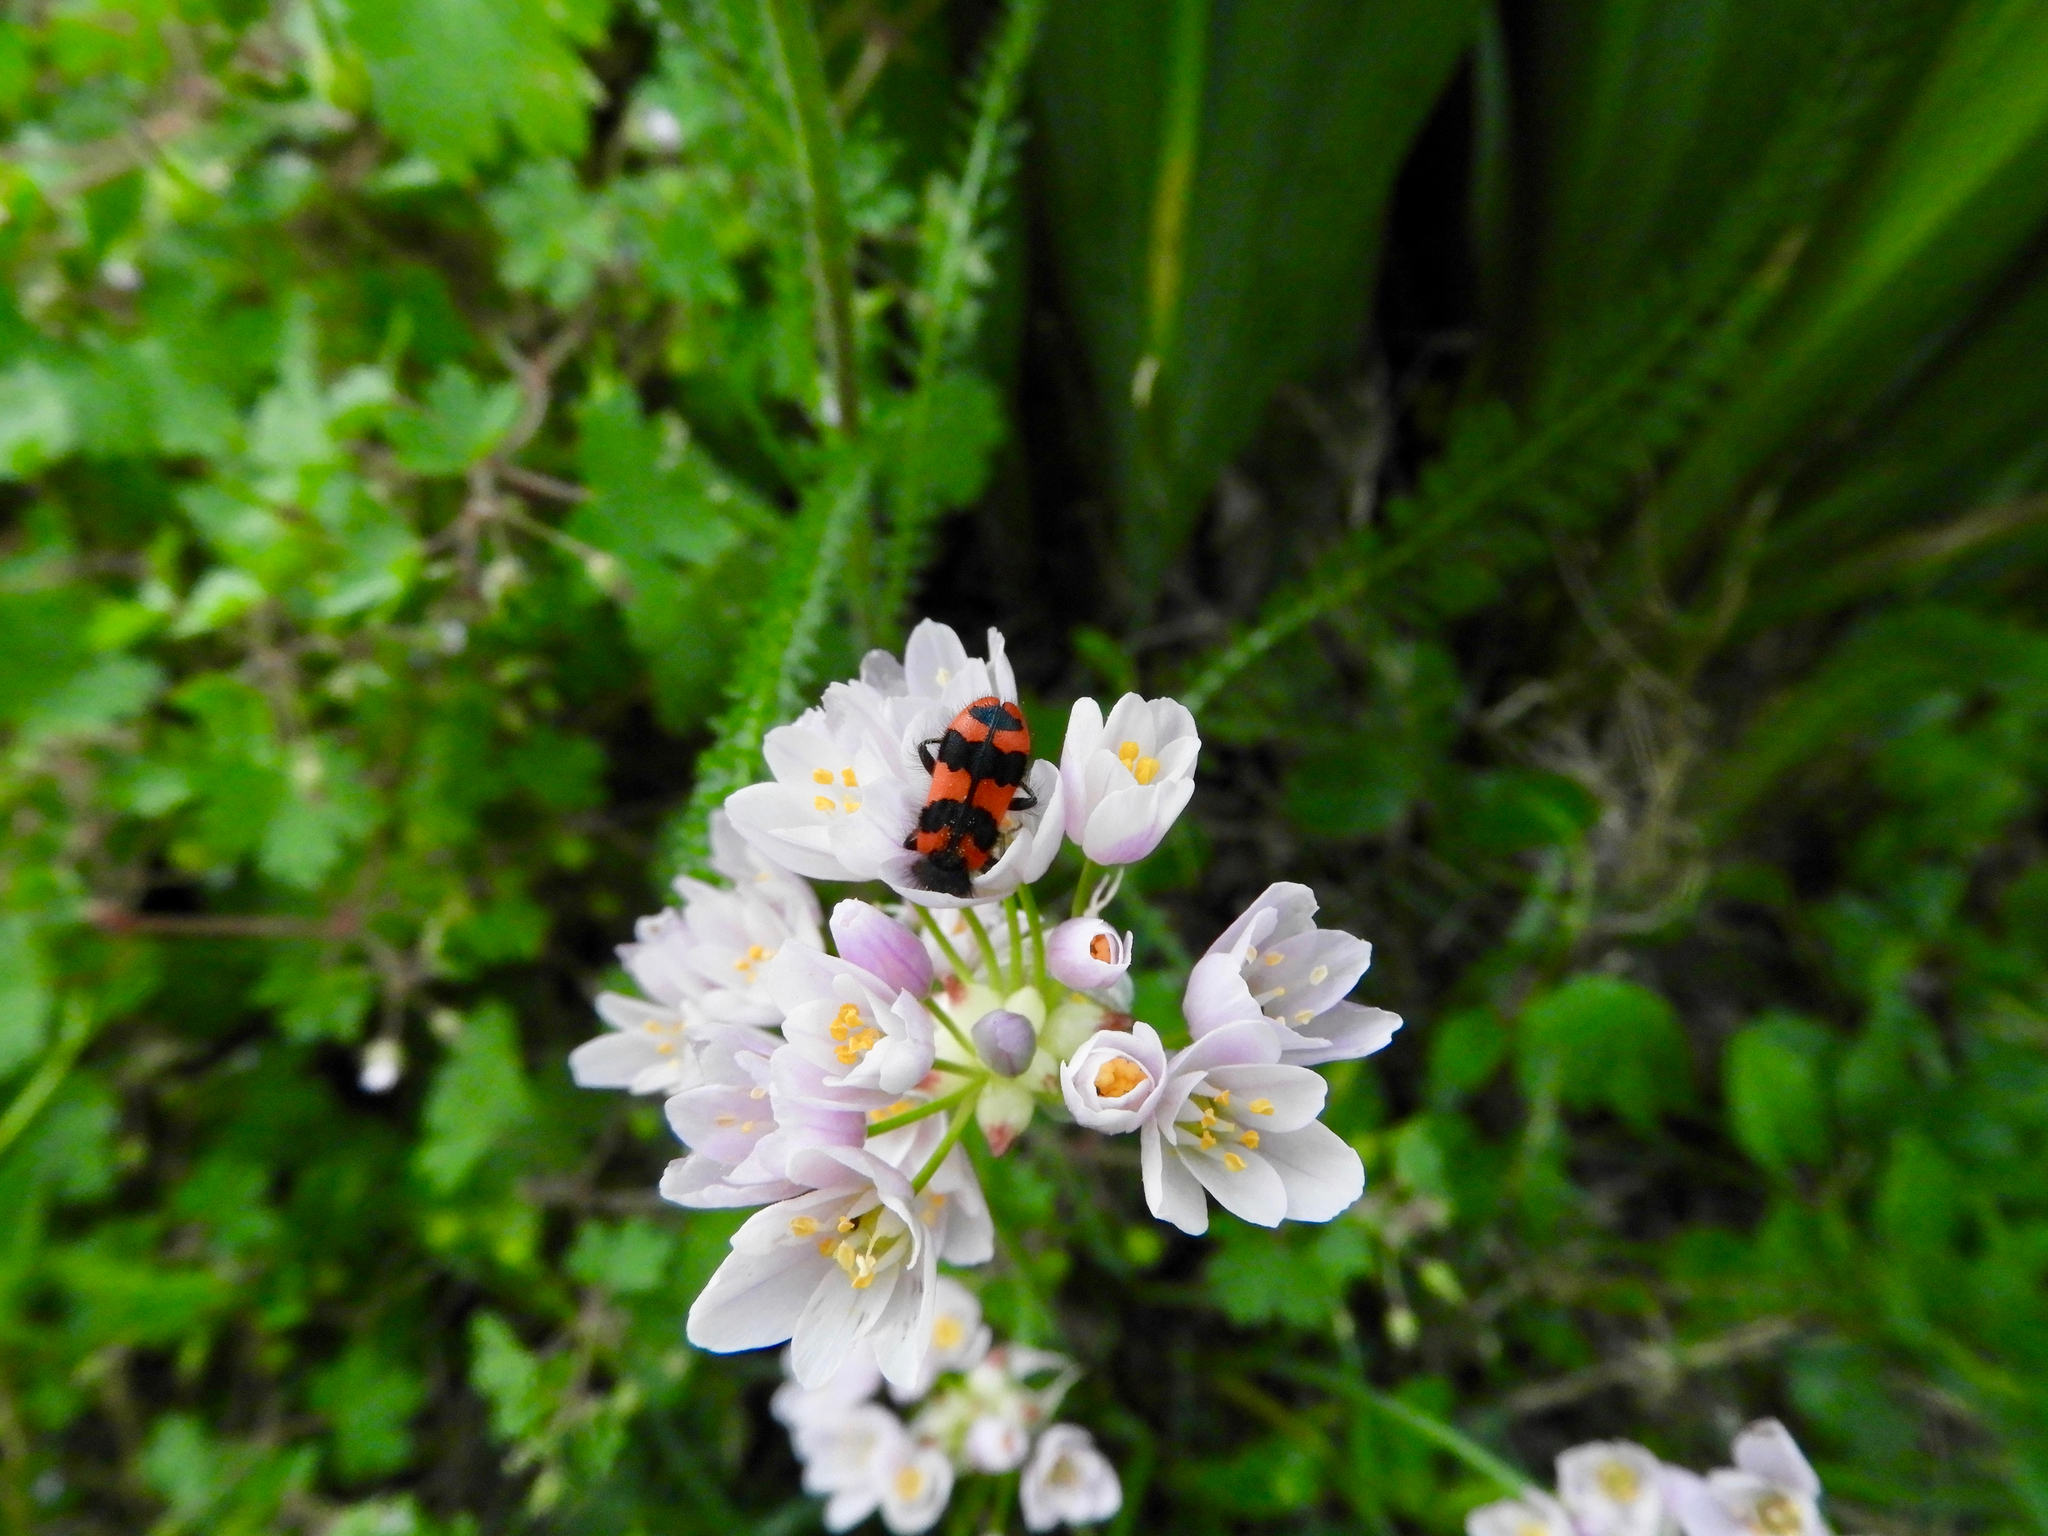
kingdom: Animalia
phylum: Arthropoda
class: Insecta
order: Coleoptera
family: Cleridae
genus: Trichodes
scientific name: Trichodes alvearius
